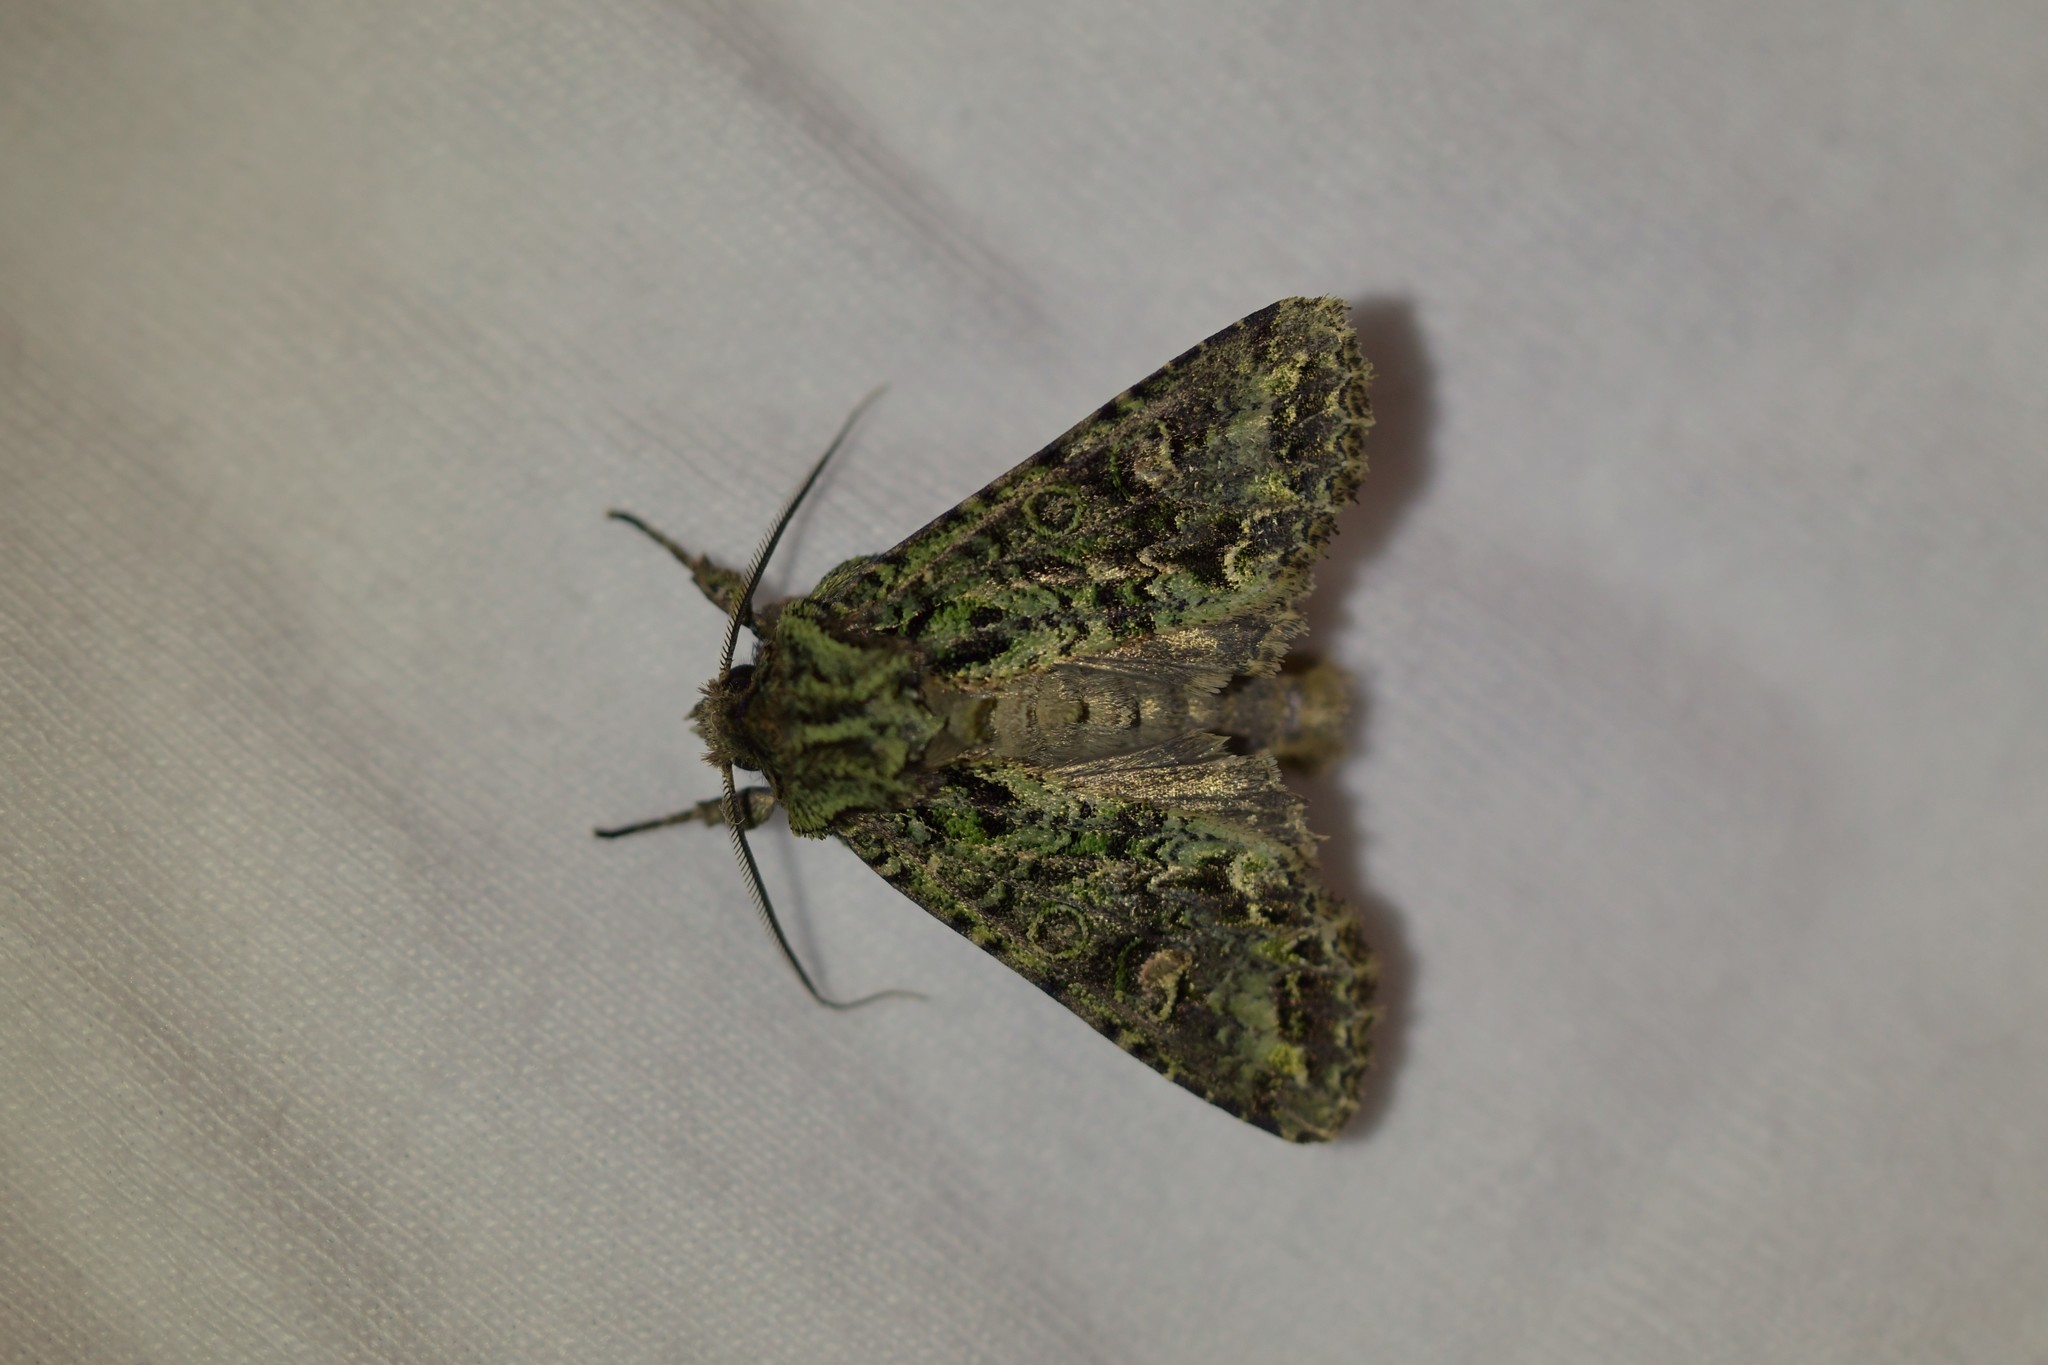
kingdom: Animalia
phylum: Arthropoda
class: Insecta
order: Lepidoptera
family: Noctuidae
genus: Ichneutica
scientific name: Ichneutica
